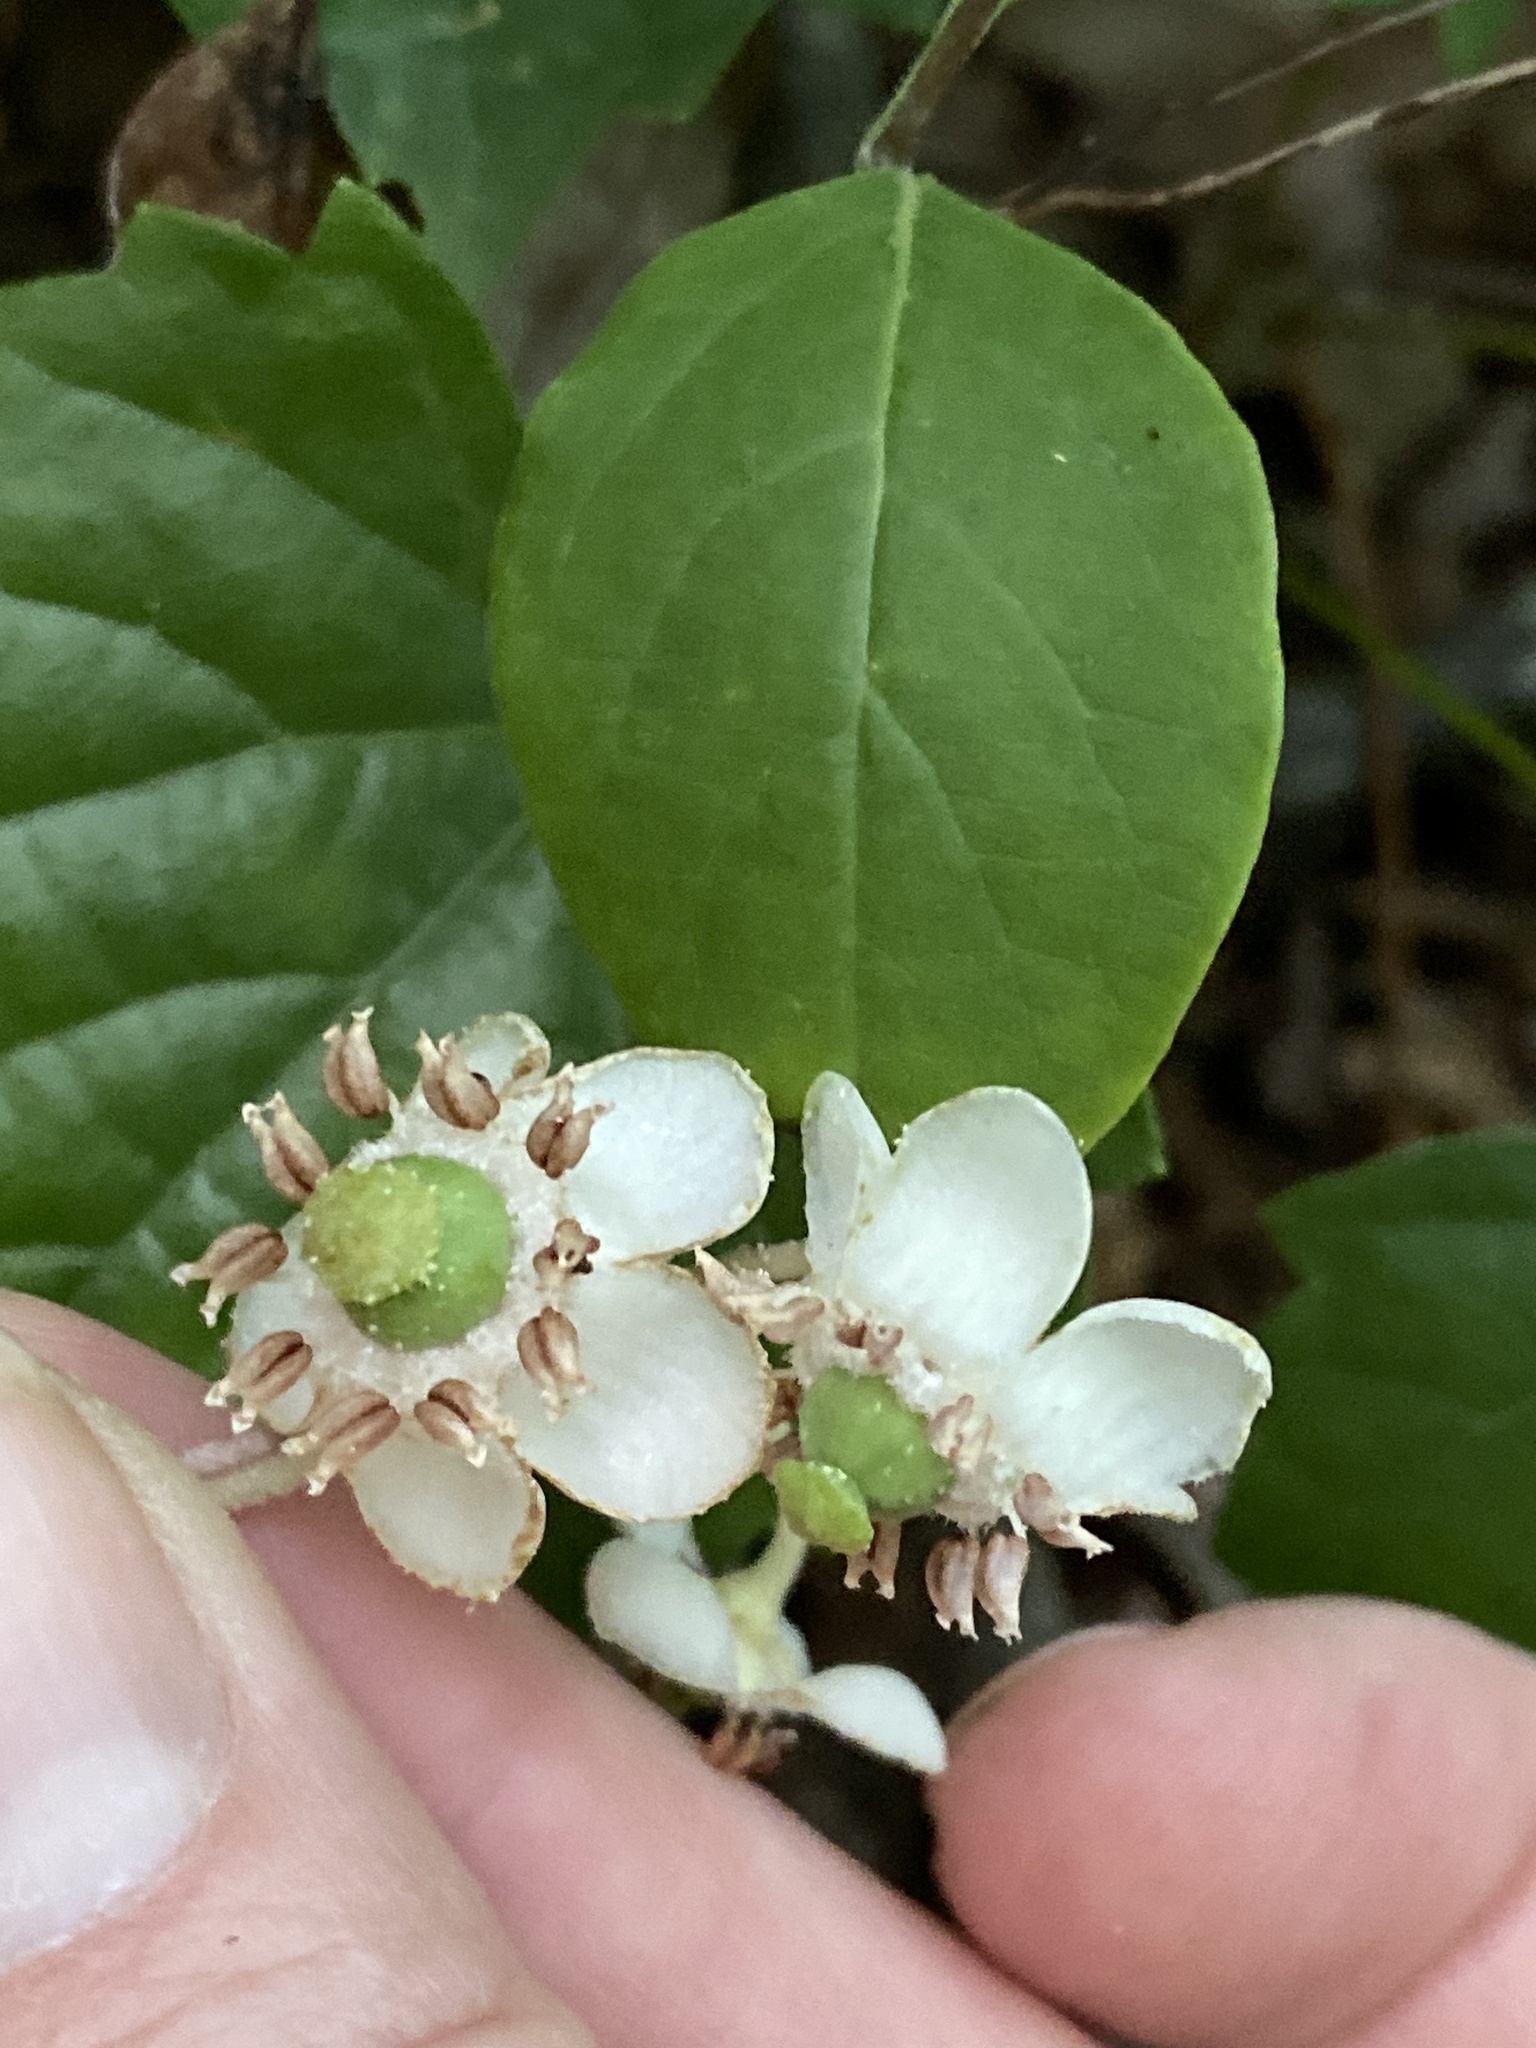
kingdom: Plantae
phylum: Tracheophyta
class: Magnoliopsida
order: Ericales
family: Ericaceae
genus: Chimaphila
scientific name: Chimaphila maculata
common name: Spotted pipsissewa
